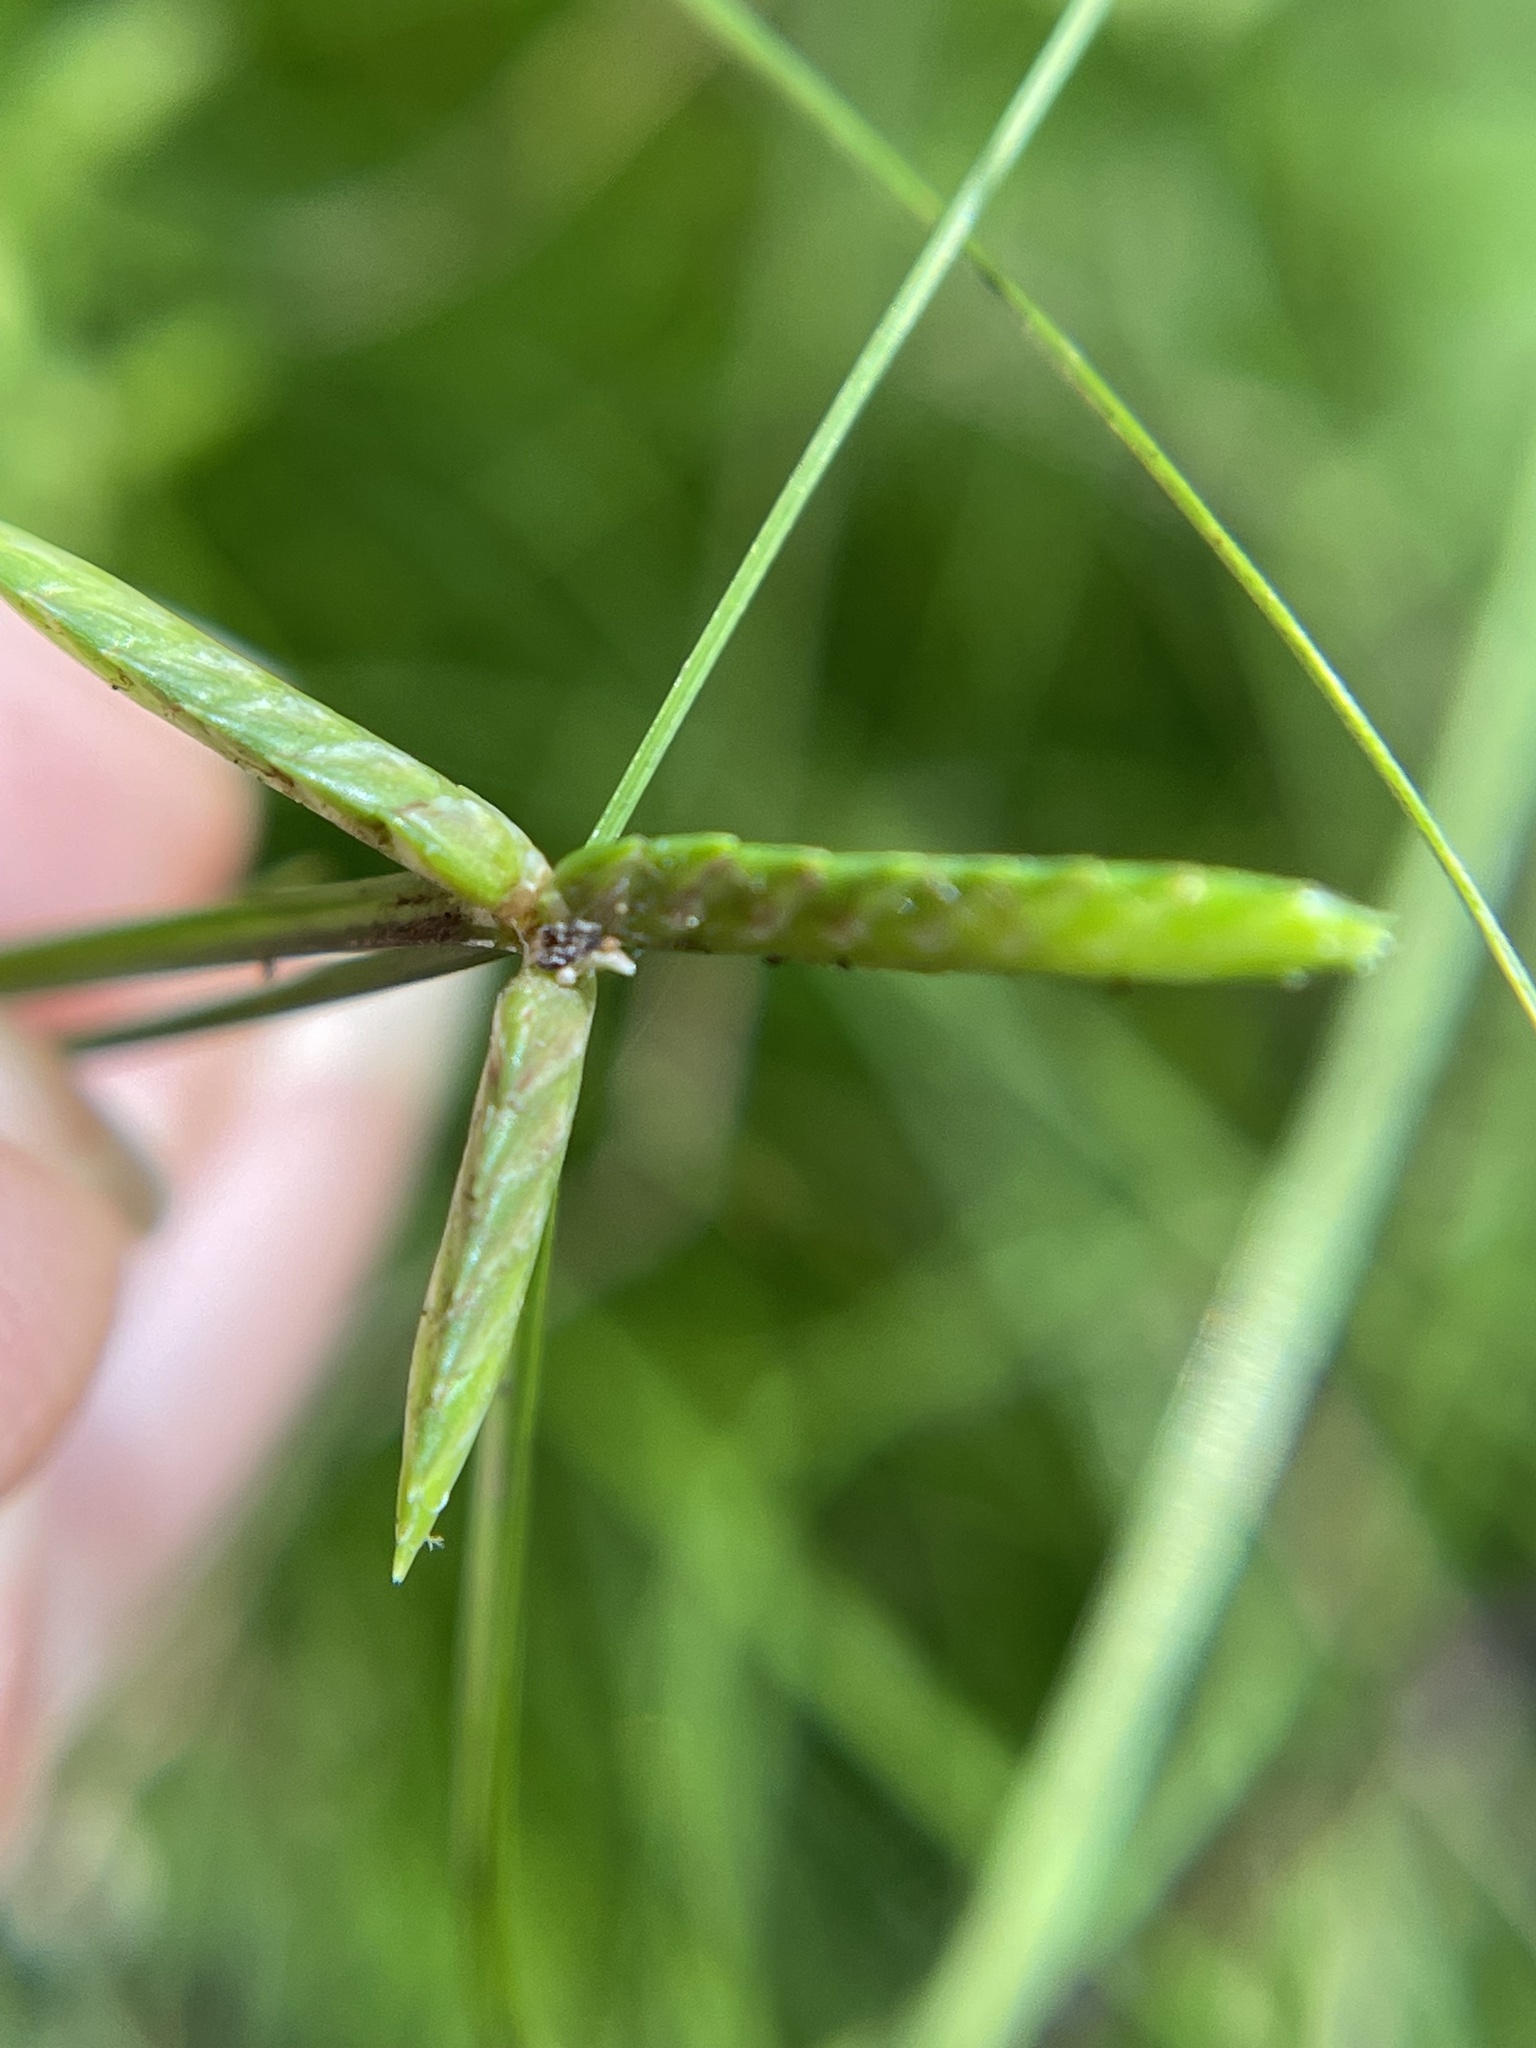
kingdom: Plantae
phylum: Tracheophyta
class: Liliopsida
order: Poales
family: Cyperaceae
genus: Cyperus
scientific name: Cyperus gracilis
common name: Slimjim flatsedge
